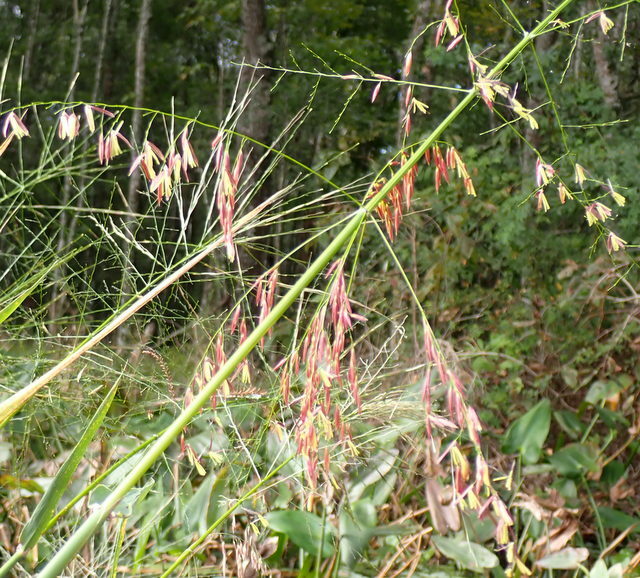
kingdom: Plantae
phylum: Tracheophyta
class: Liliopsida
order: Poales
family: Poaceae
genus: Zizania
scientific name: Zizania aquatica
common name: Annual wildrice
